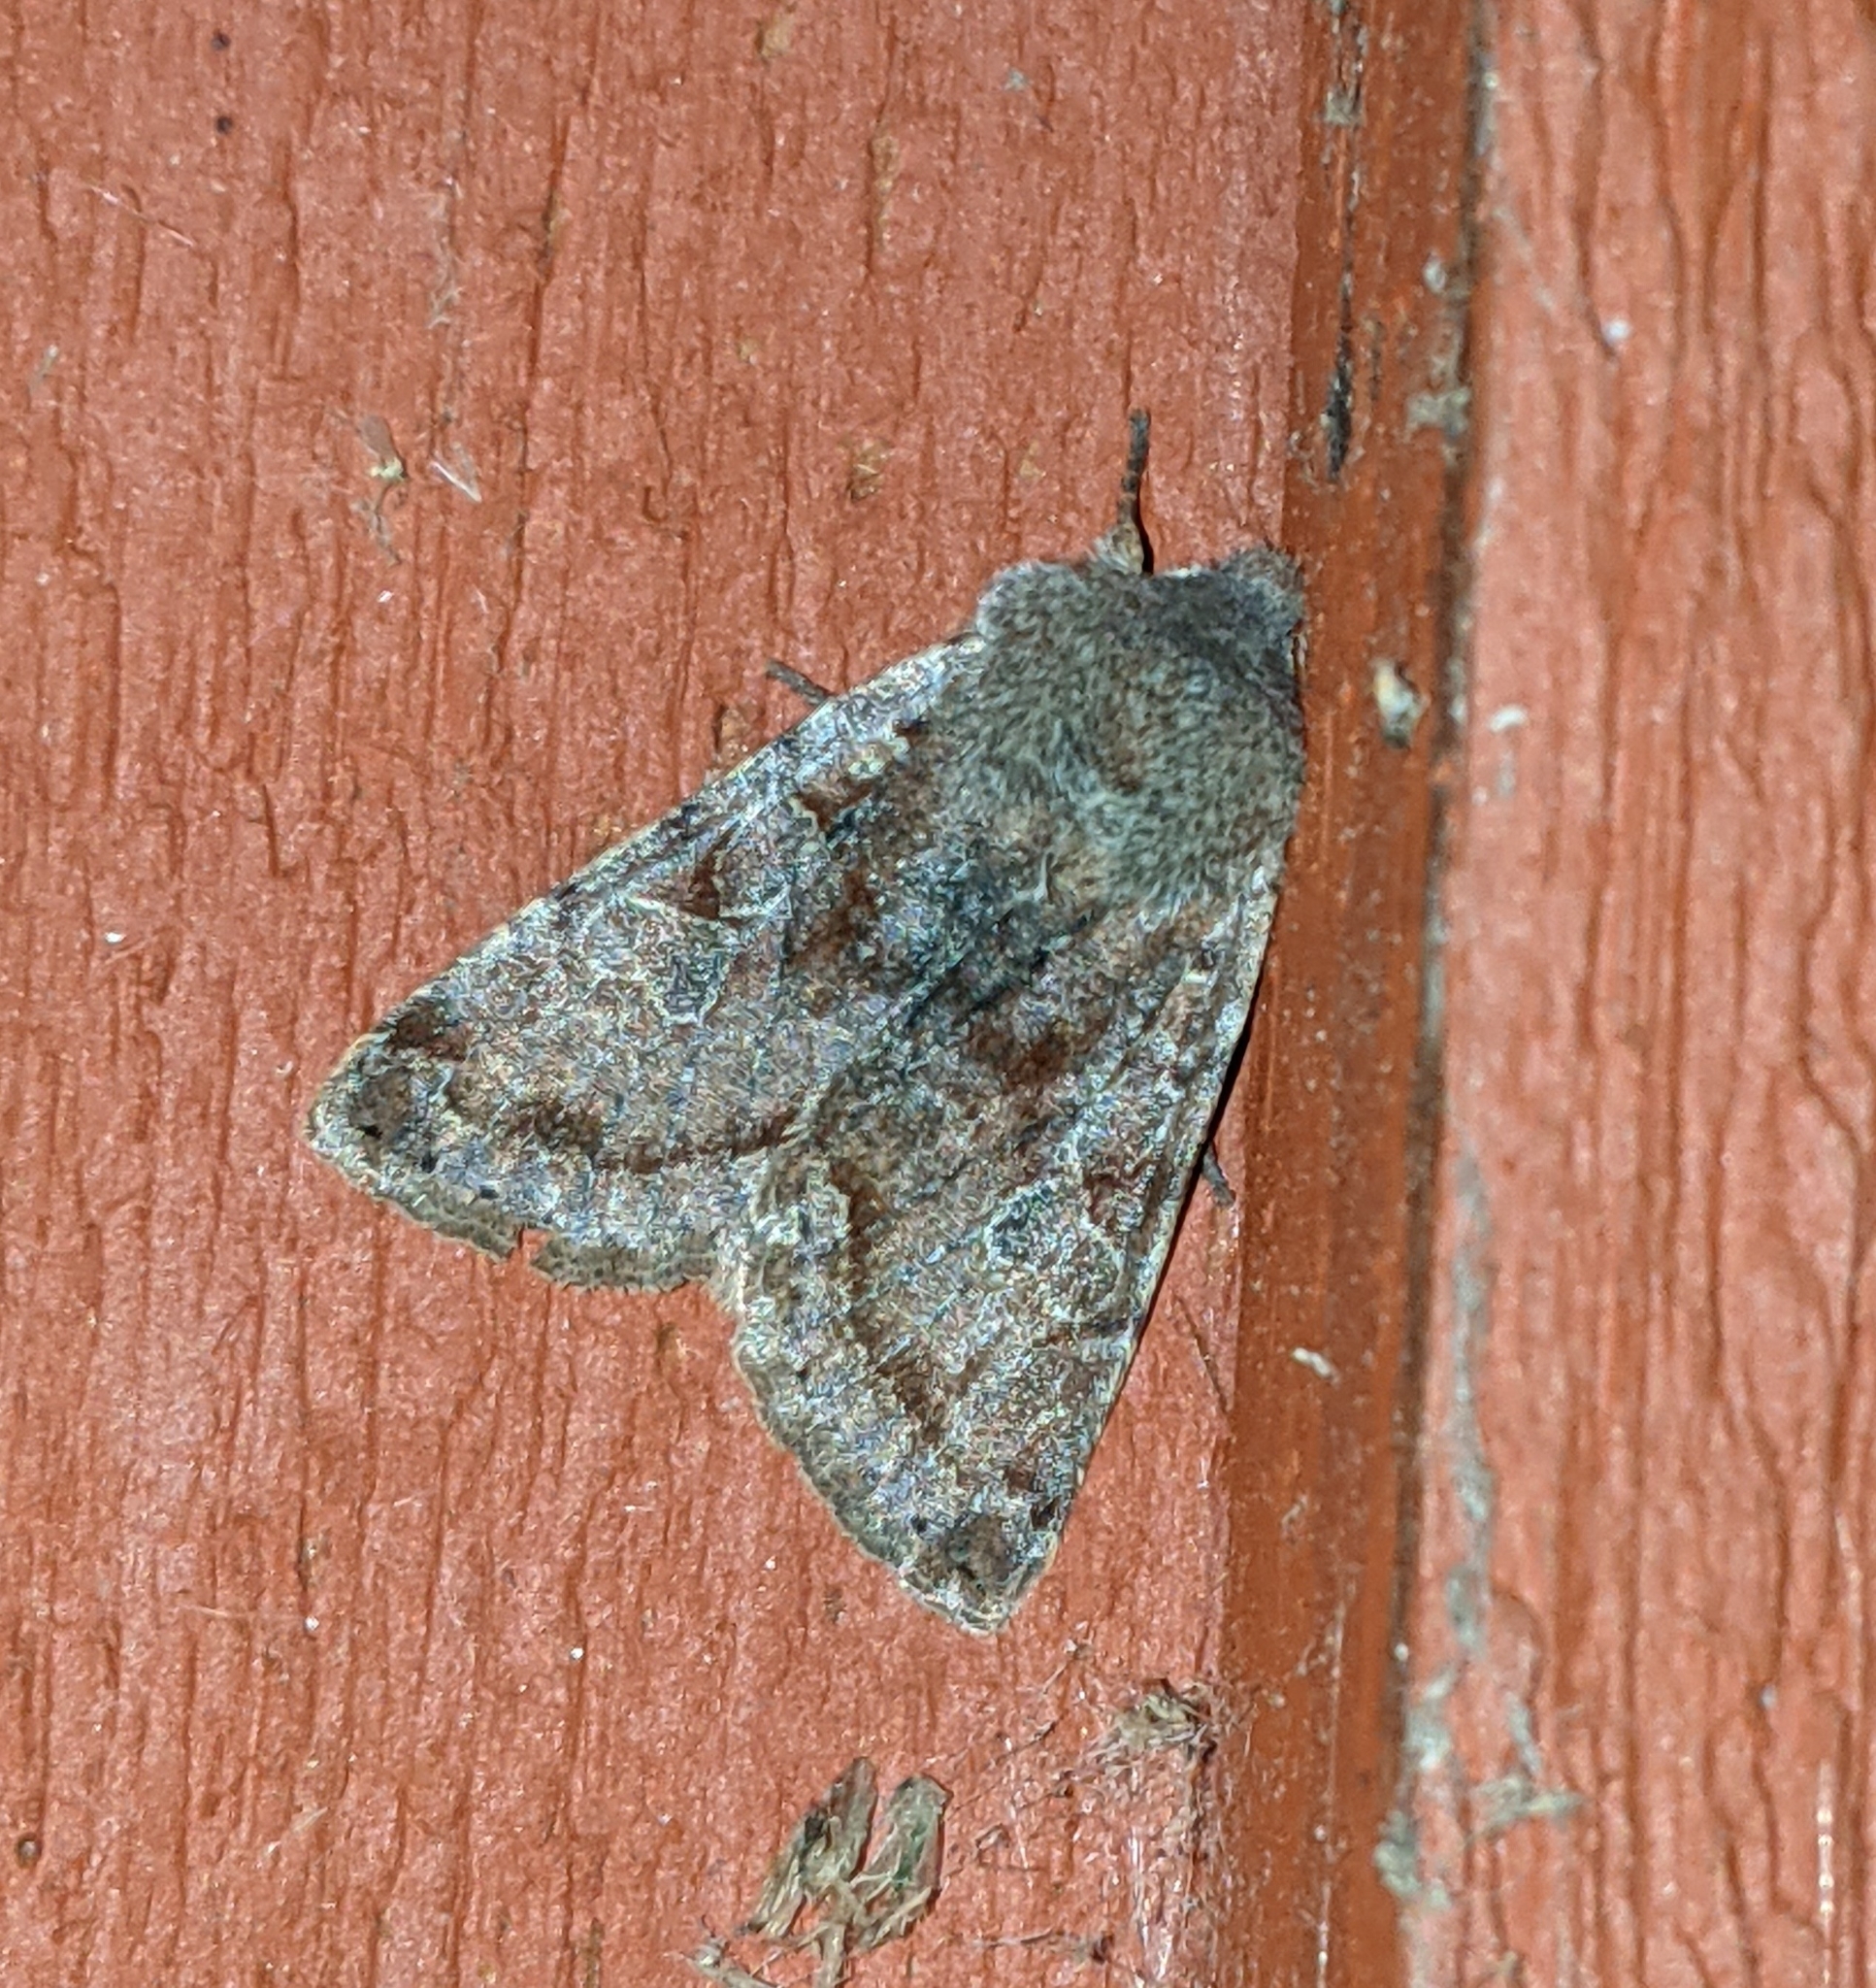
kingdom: Animalia
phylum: Arthropoda
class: Insecta
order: Lepidoptera
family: Noctuidae
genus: Orthosia
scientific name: Orthosia hibisci
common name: Green fruitworm
